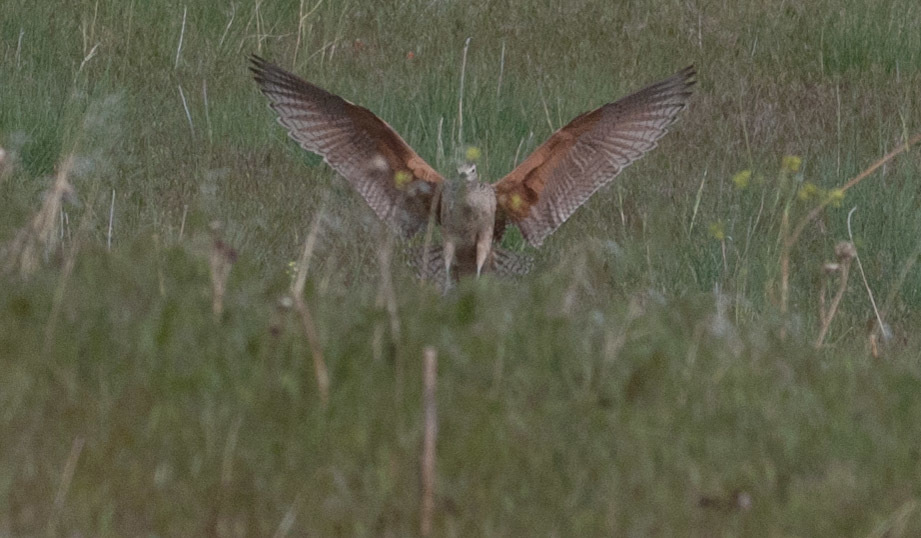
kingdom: Animalia
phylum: Chordata
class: Aves
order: Charadriiformes
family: Scolopacidae
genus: Numenius
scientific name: Numenius americanus
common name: Long-billed curlew
